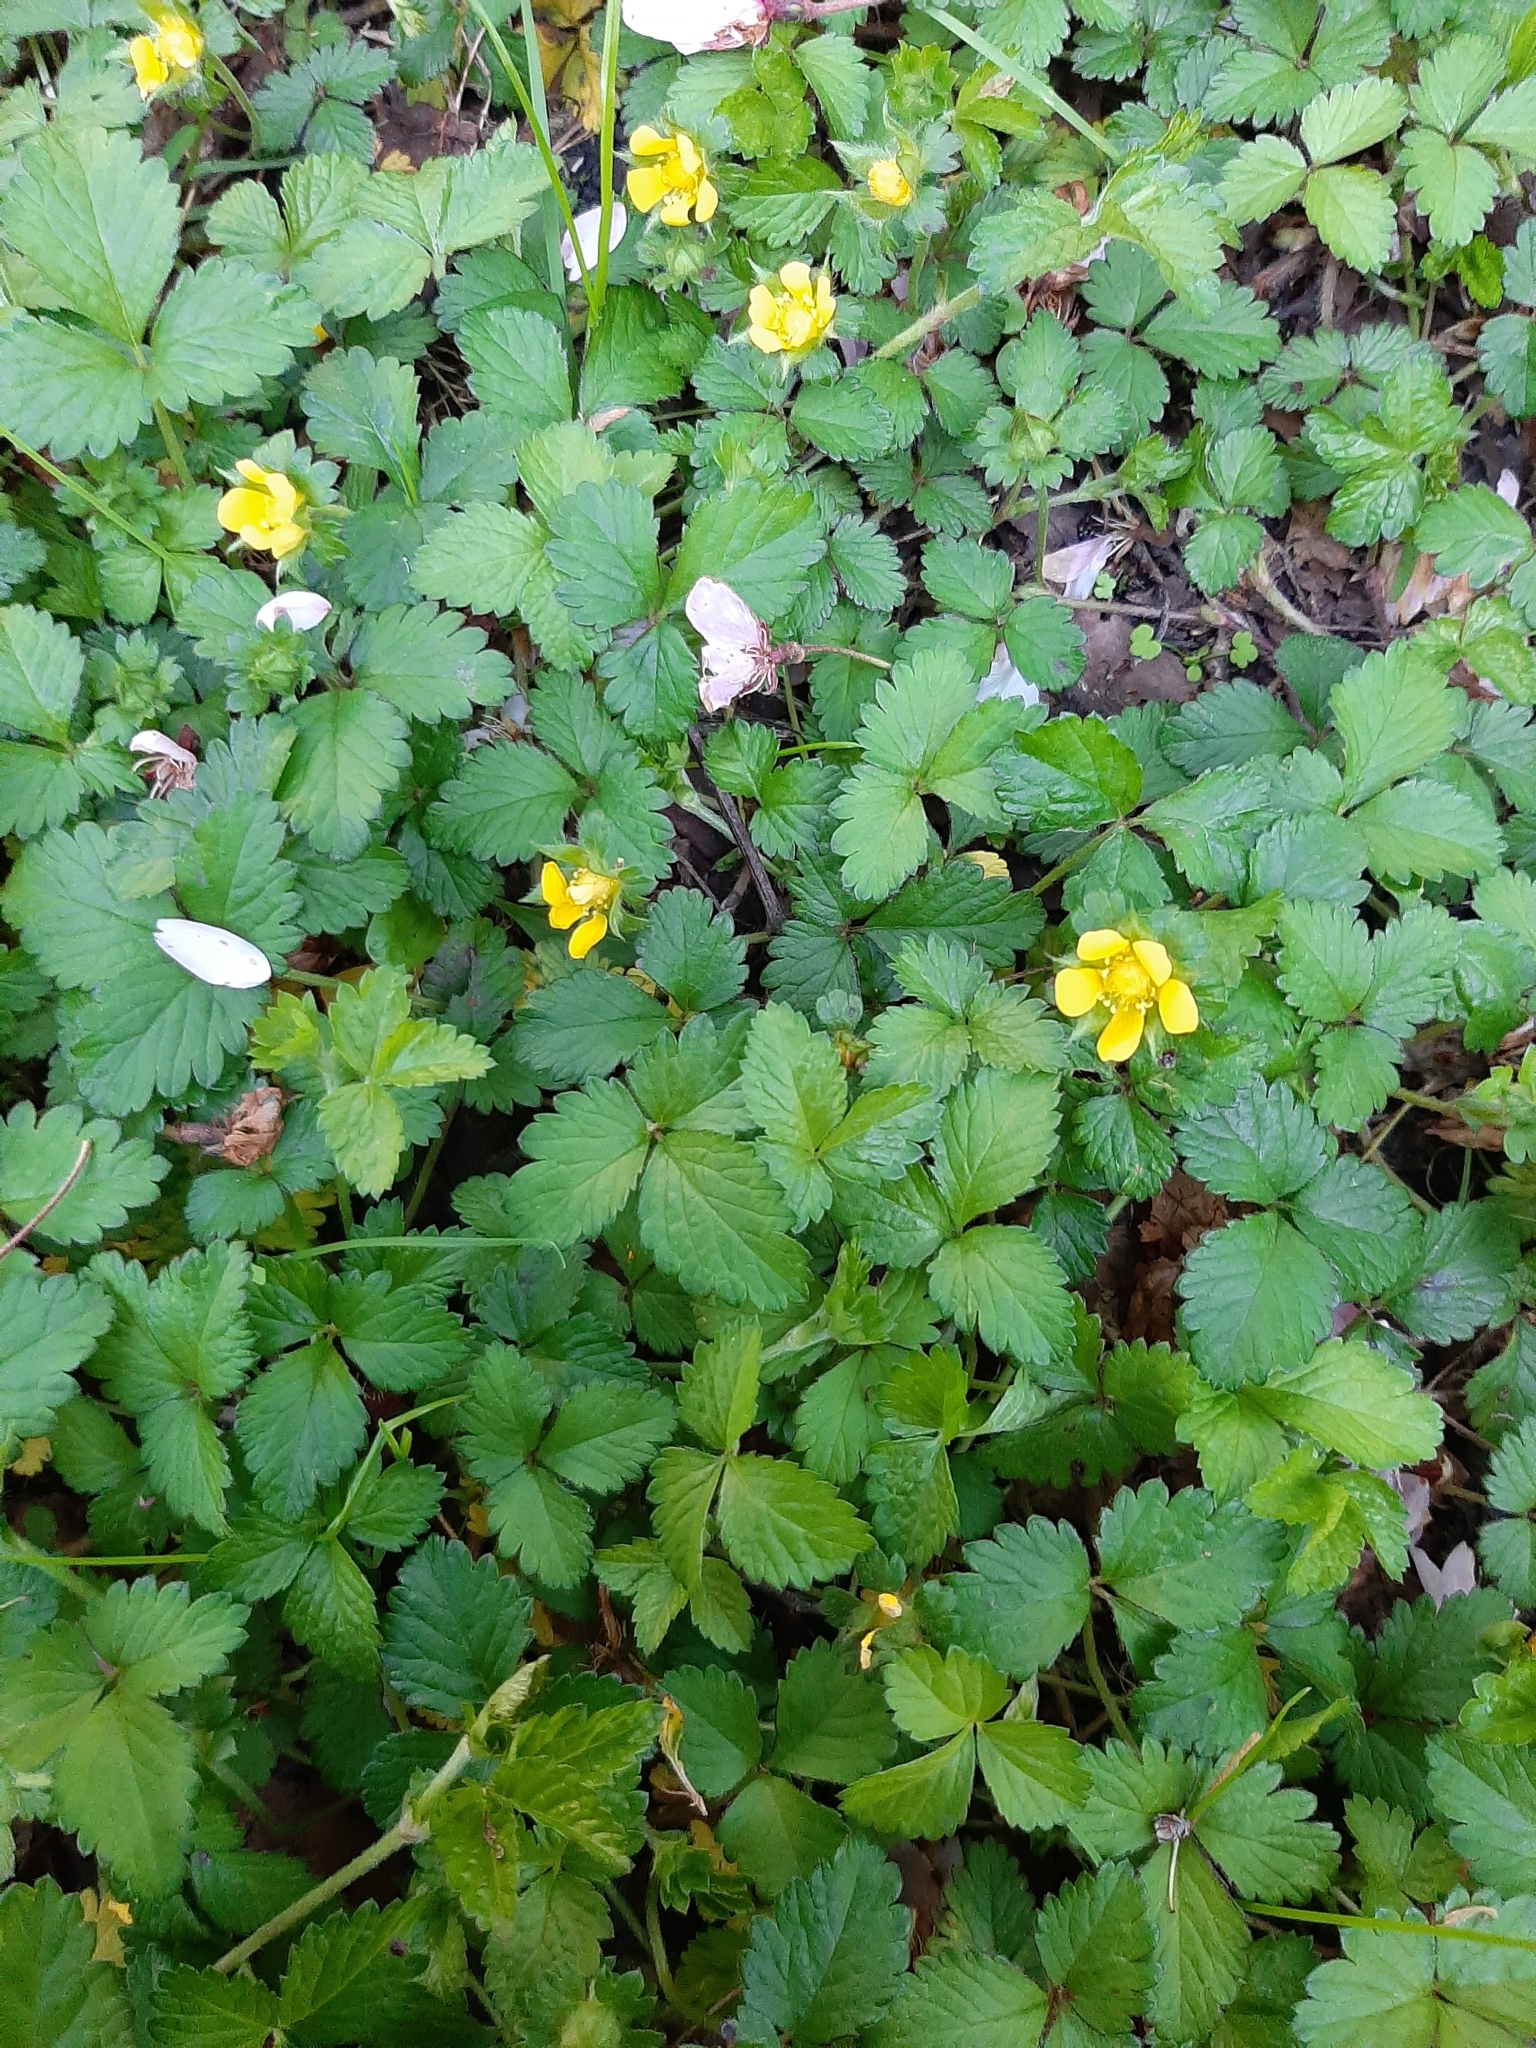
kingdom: Plantae
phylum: Tracheophyta
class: Magnoliopsida
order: Rosales
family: Rosaceae
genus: Potentilla
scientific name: Potentilla indica
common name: Yellow-flowered strawberry
